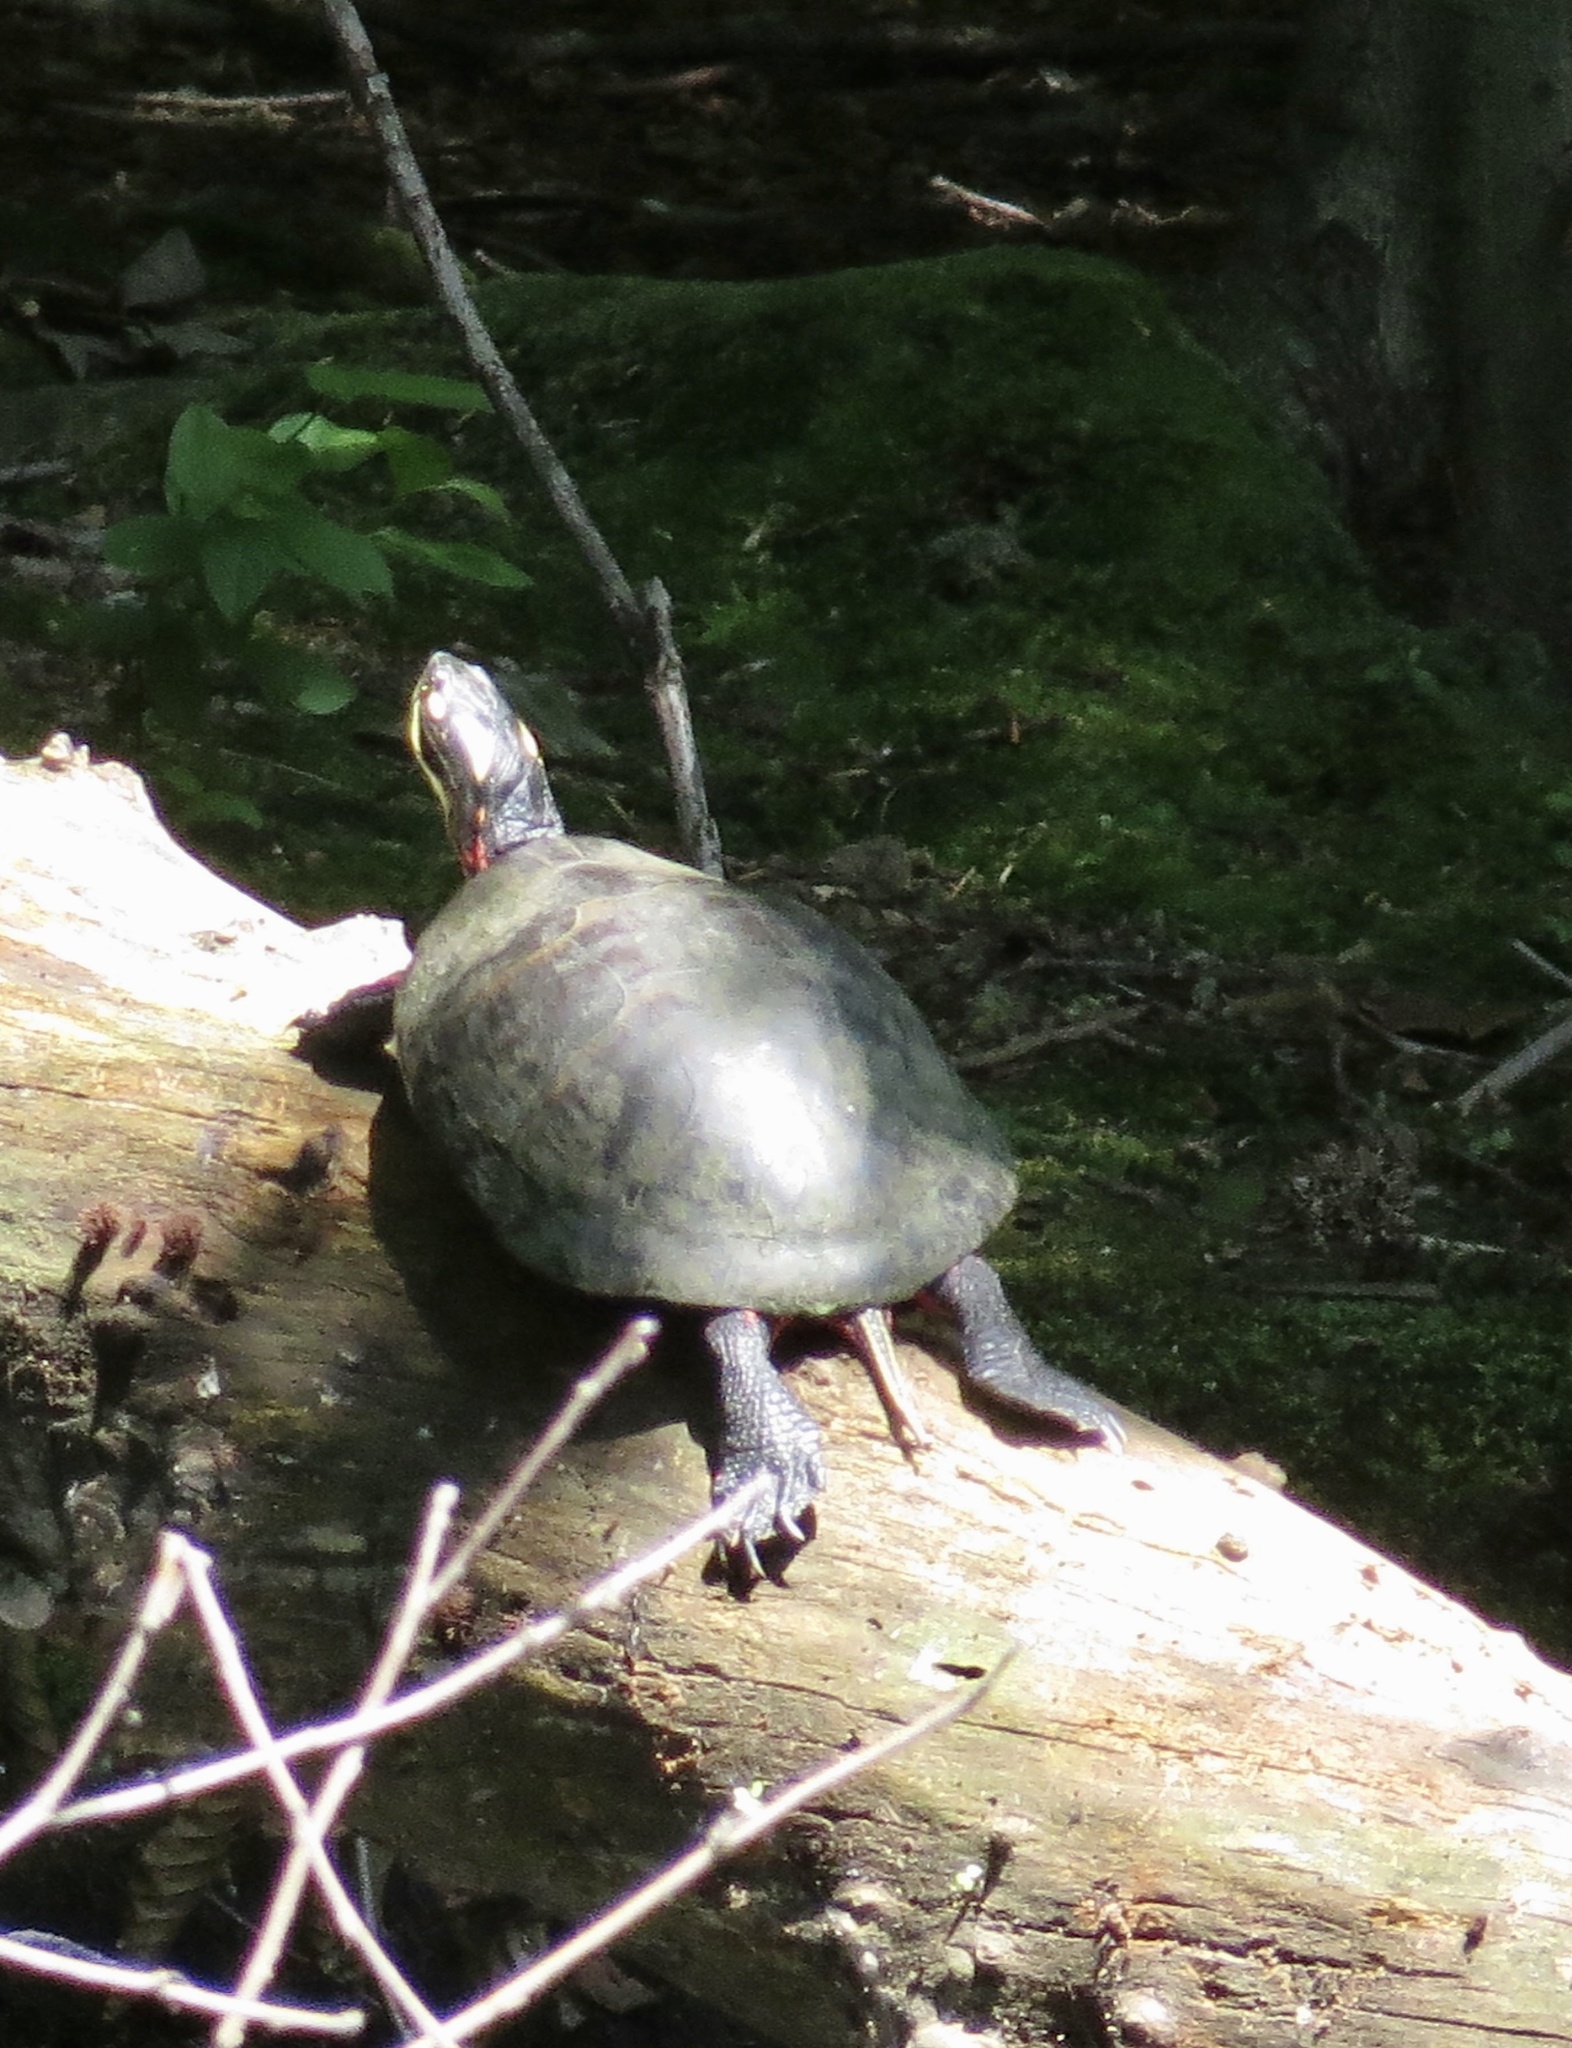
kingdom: Animalia
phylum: Chordata
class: Testudines
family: Emydidae
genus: Chrysemys
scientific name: Chrysemys picta
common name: Painted turtle
